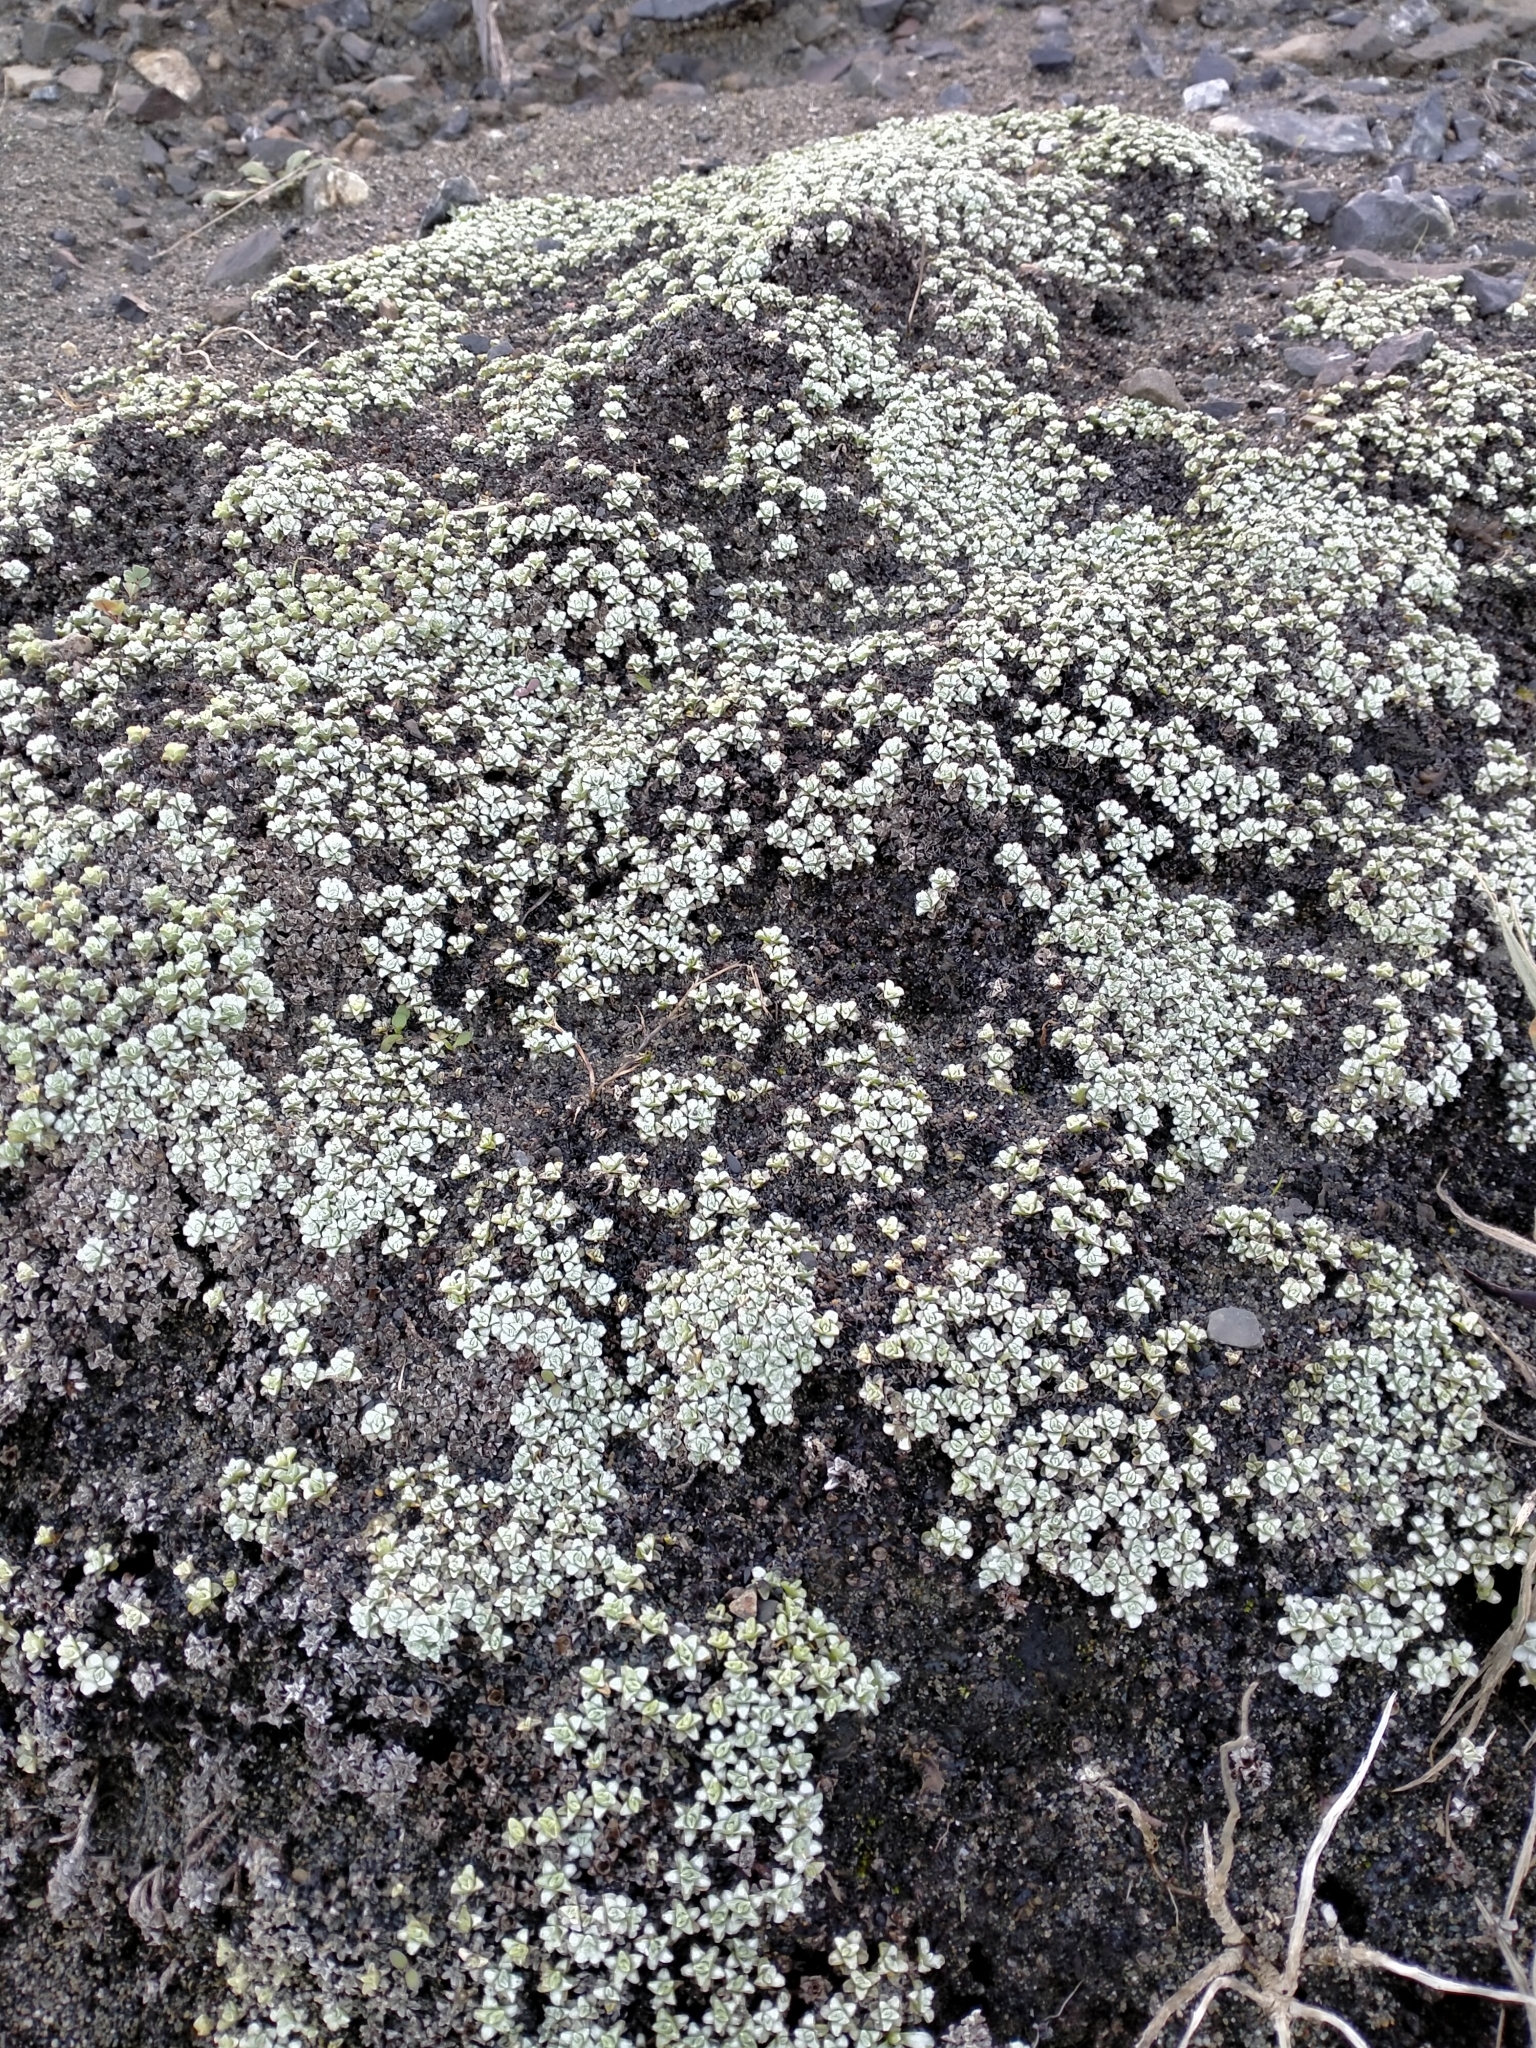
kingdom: Plantae
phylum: Tracheophyta
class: Magnoliopsida
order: Asterales
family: Asteraceae
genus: Raoulia
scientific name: Raoulia hookeri
